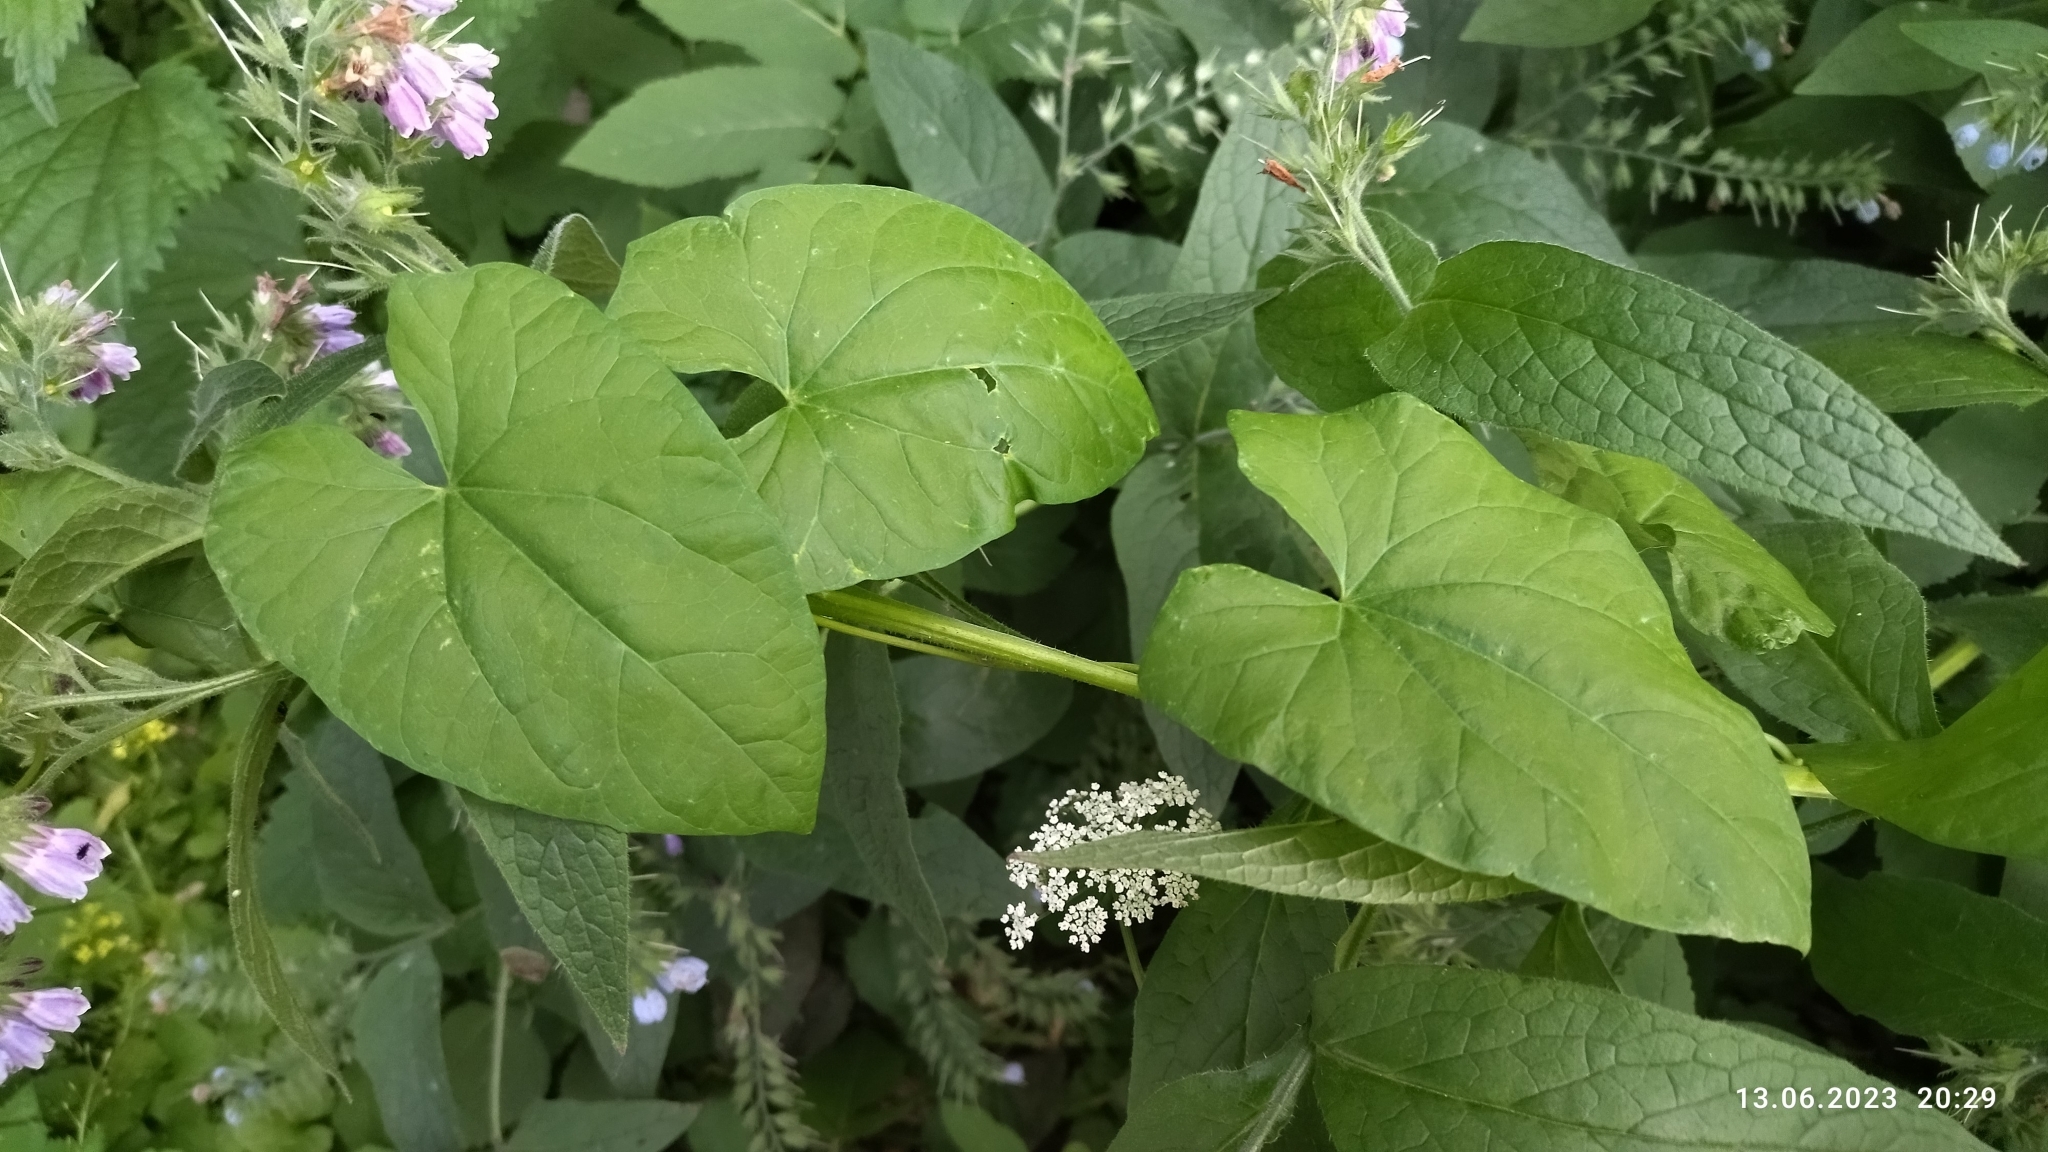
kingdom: Plantae
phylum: Tracheophyta
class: Magnoliopsida
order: Solanales
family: Convolvulaceae
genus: Calystegia
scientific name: Calystegia sepium
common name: Hedge bindweed
